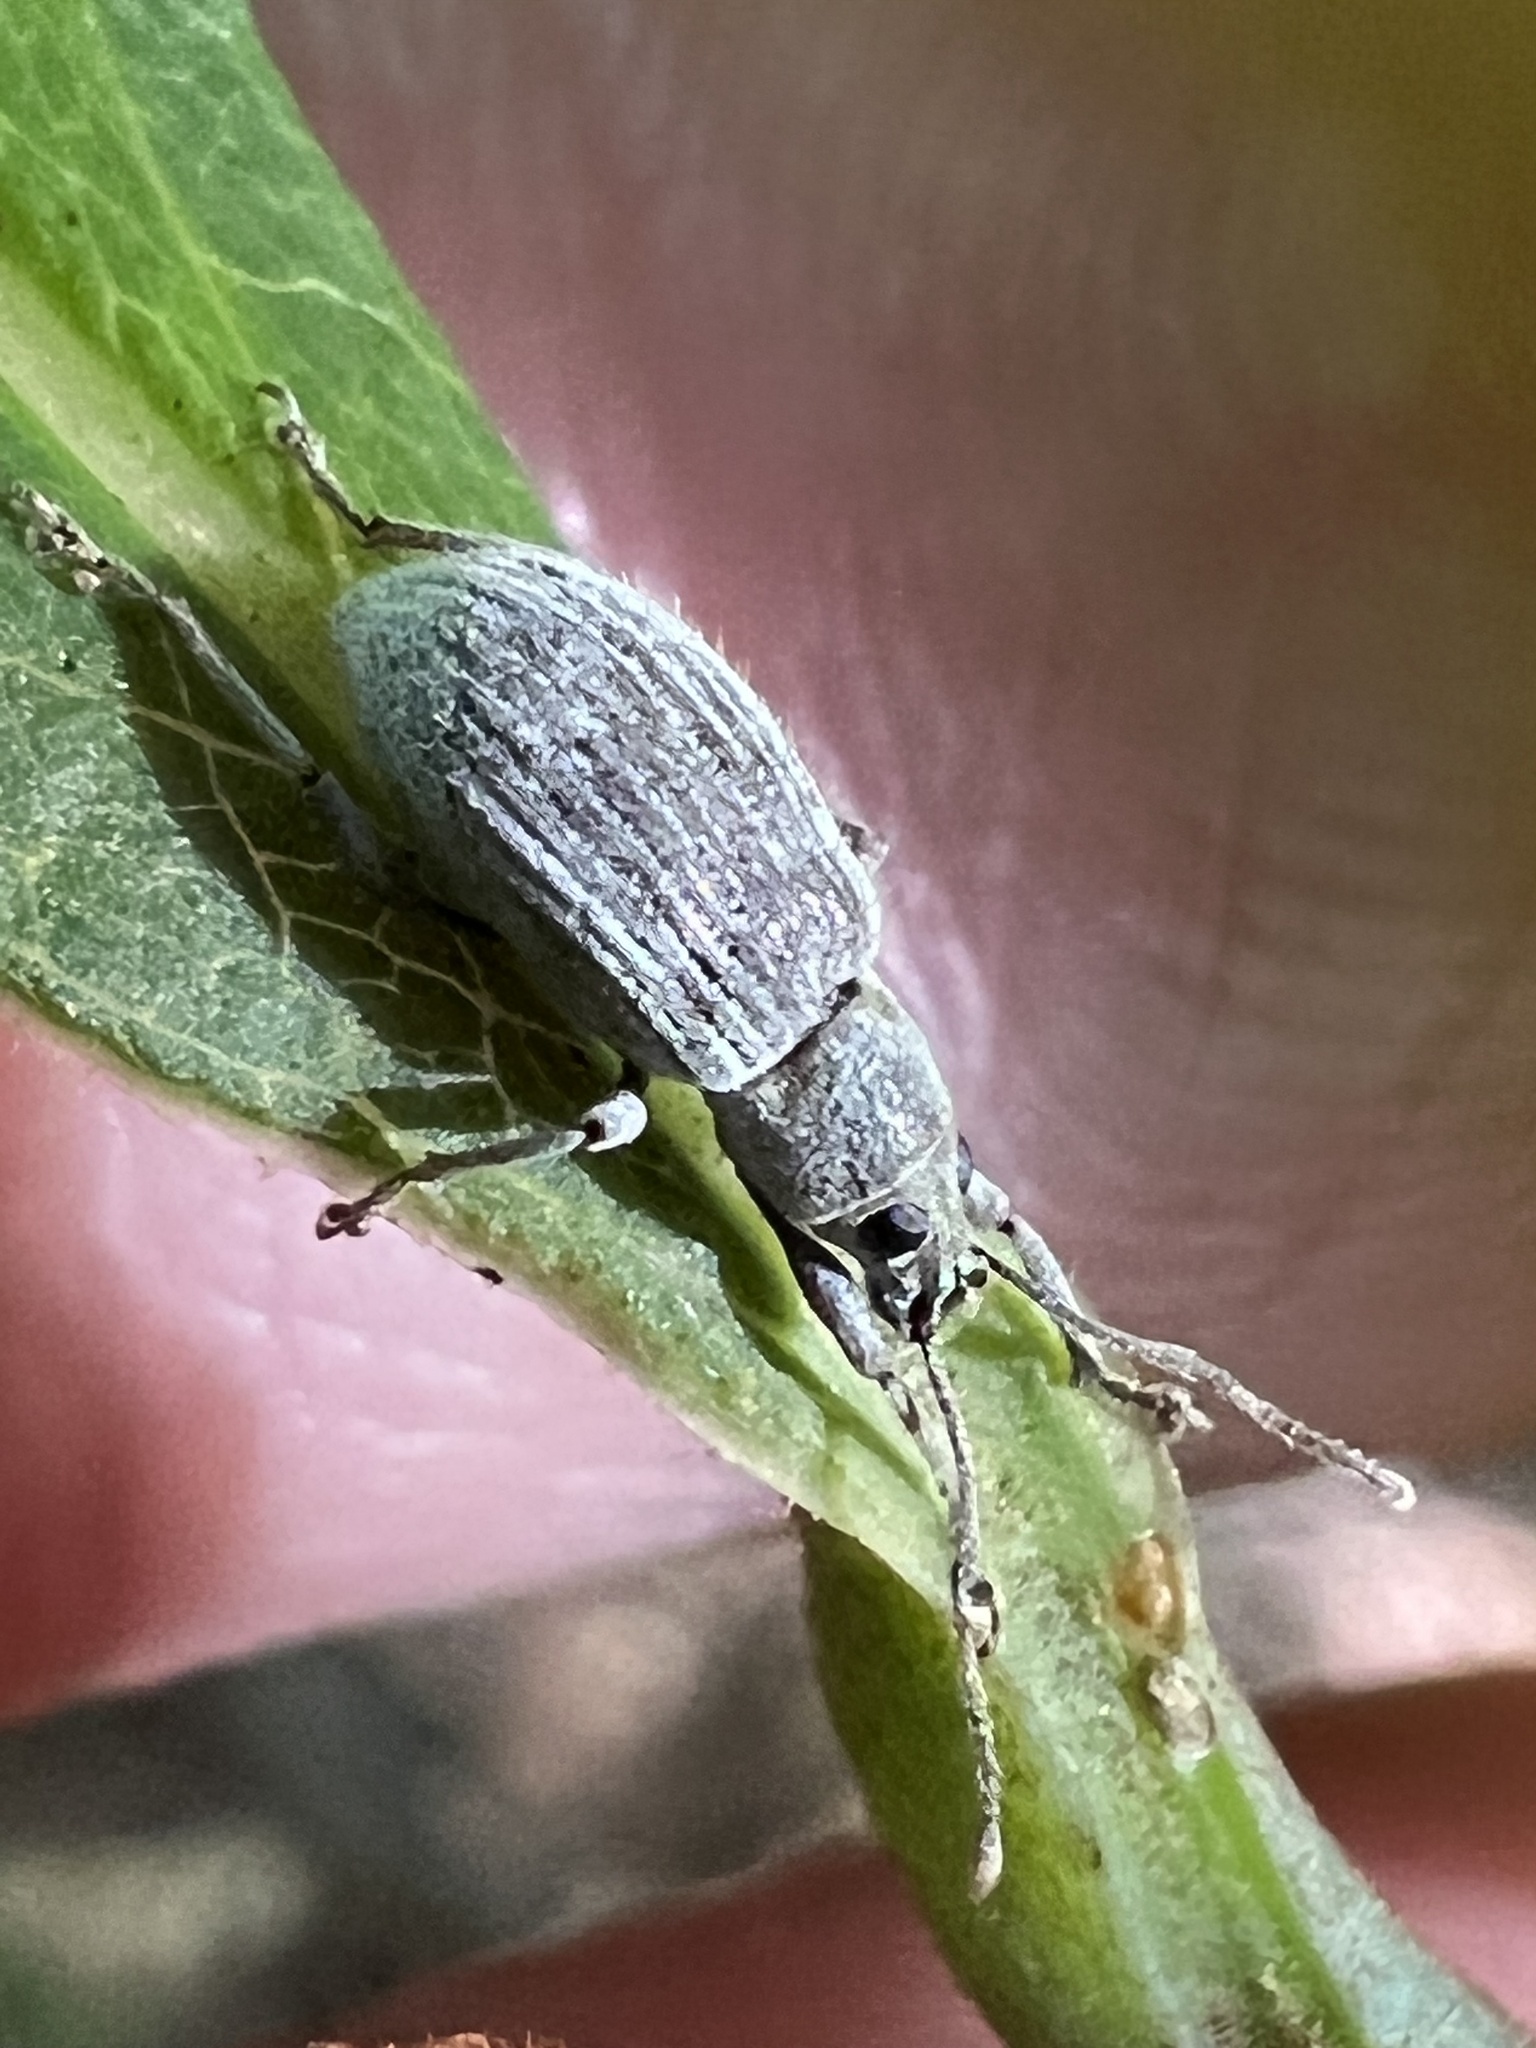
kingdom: Animalia
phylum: Arthropoda
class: Insecta
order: Coleoptera
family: Curculionidae
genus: Cyrtepistomus
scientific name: Cyrtepistomus castaneus
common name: Weevil
